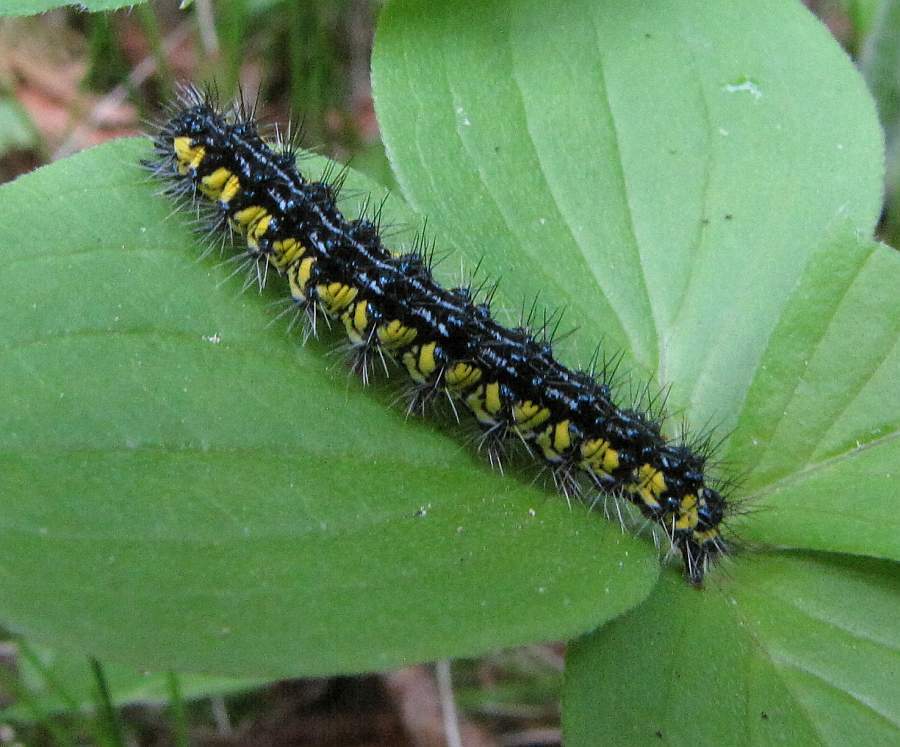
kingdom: Animalia
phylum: Arthropoda
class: Insecta
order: Lepidoptera
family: Erebidae
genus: Haploa
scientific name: Haploa contigua
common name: Neighbor moth
